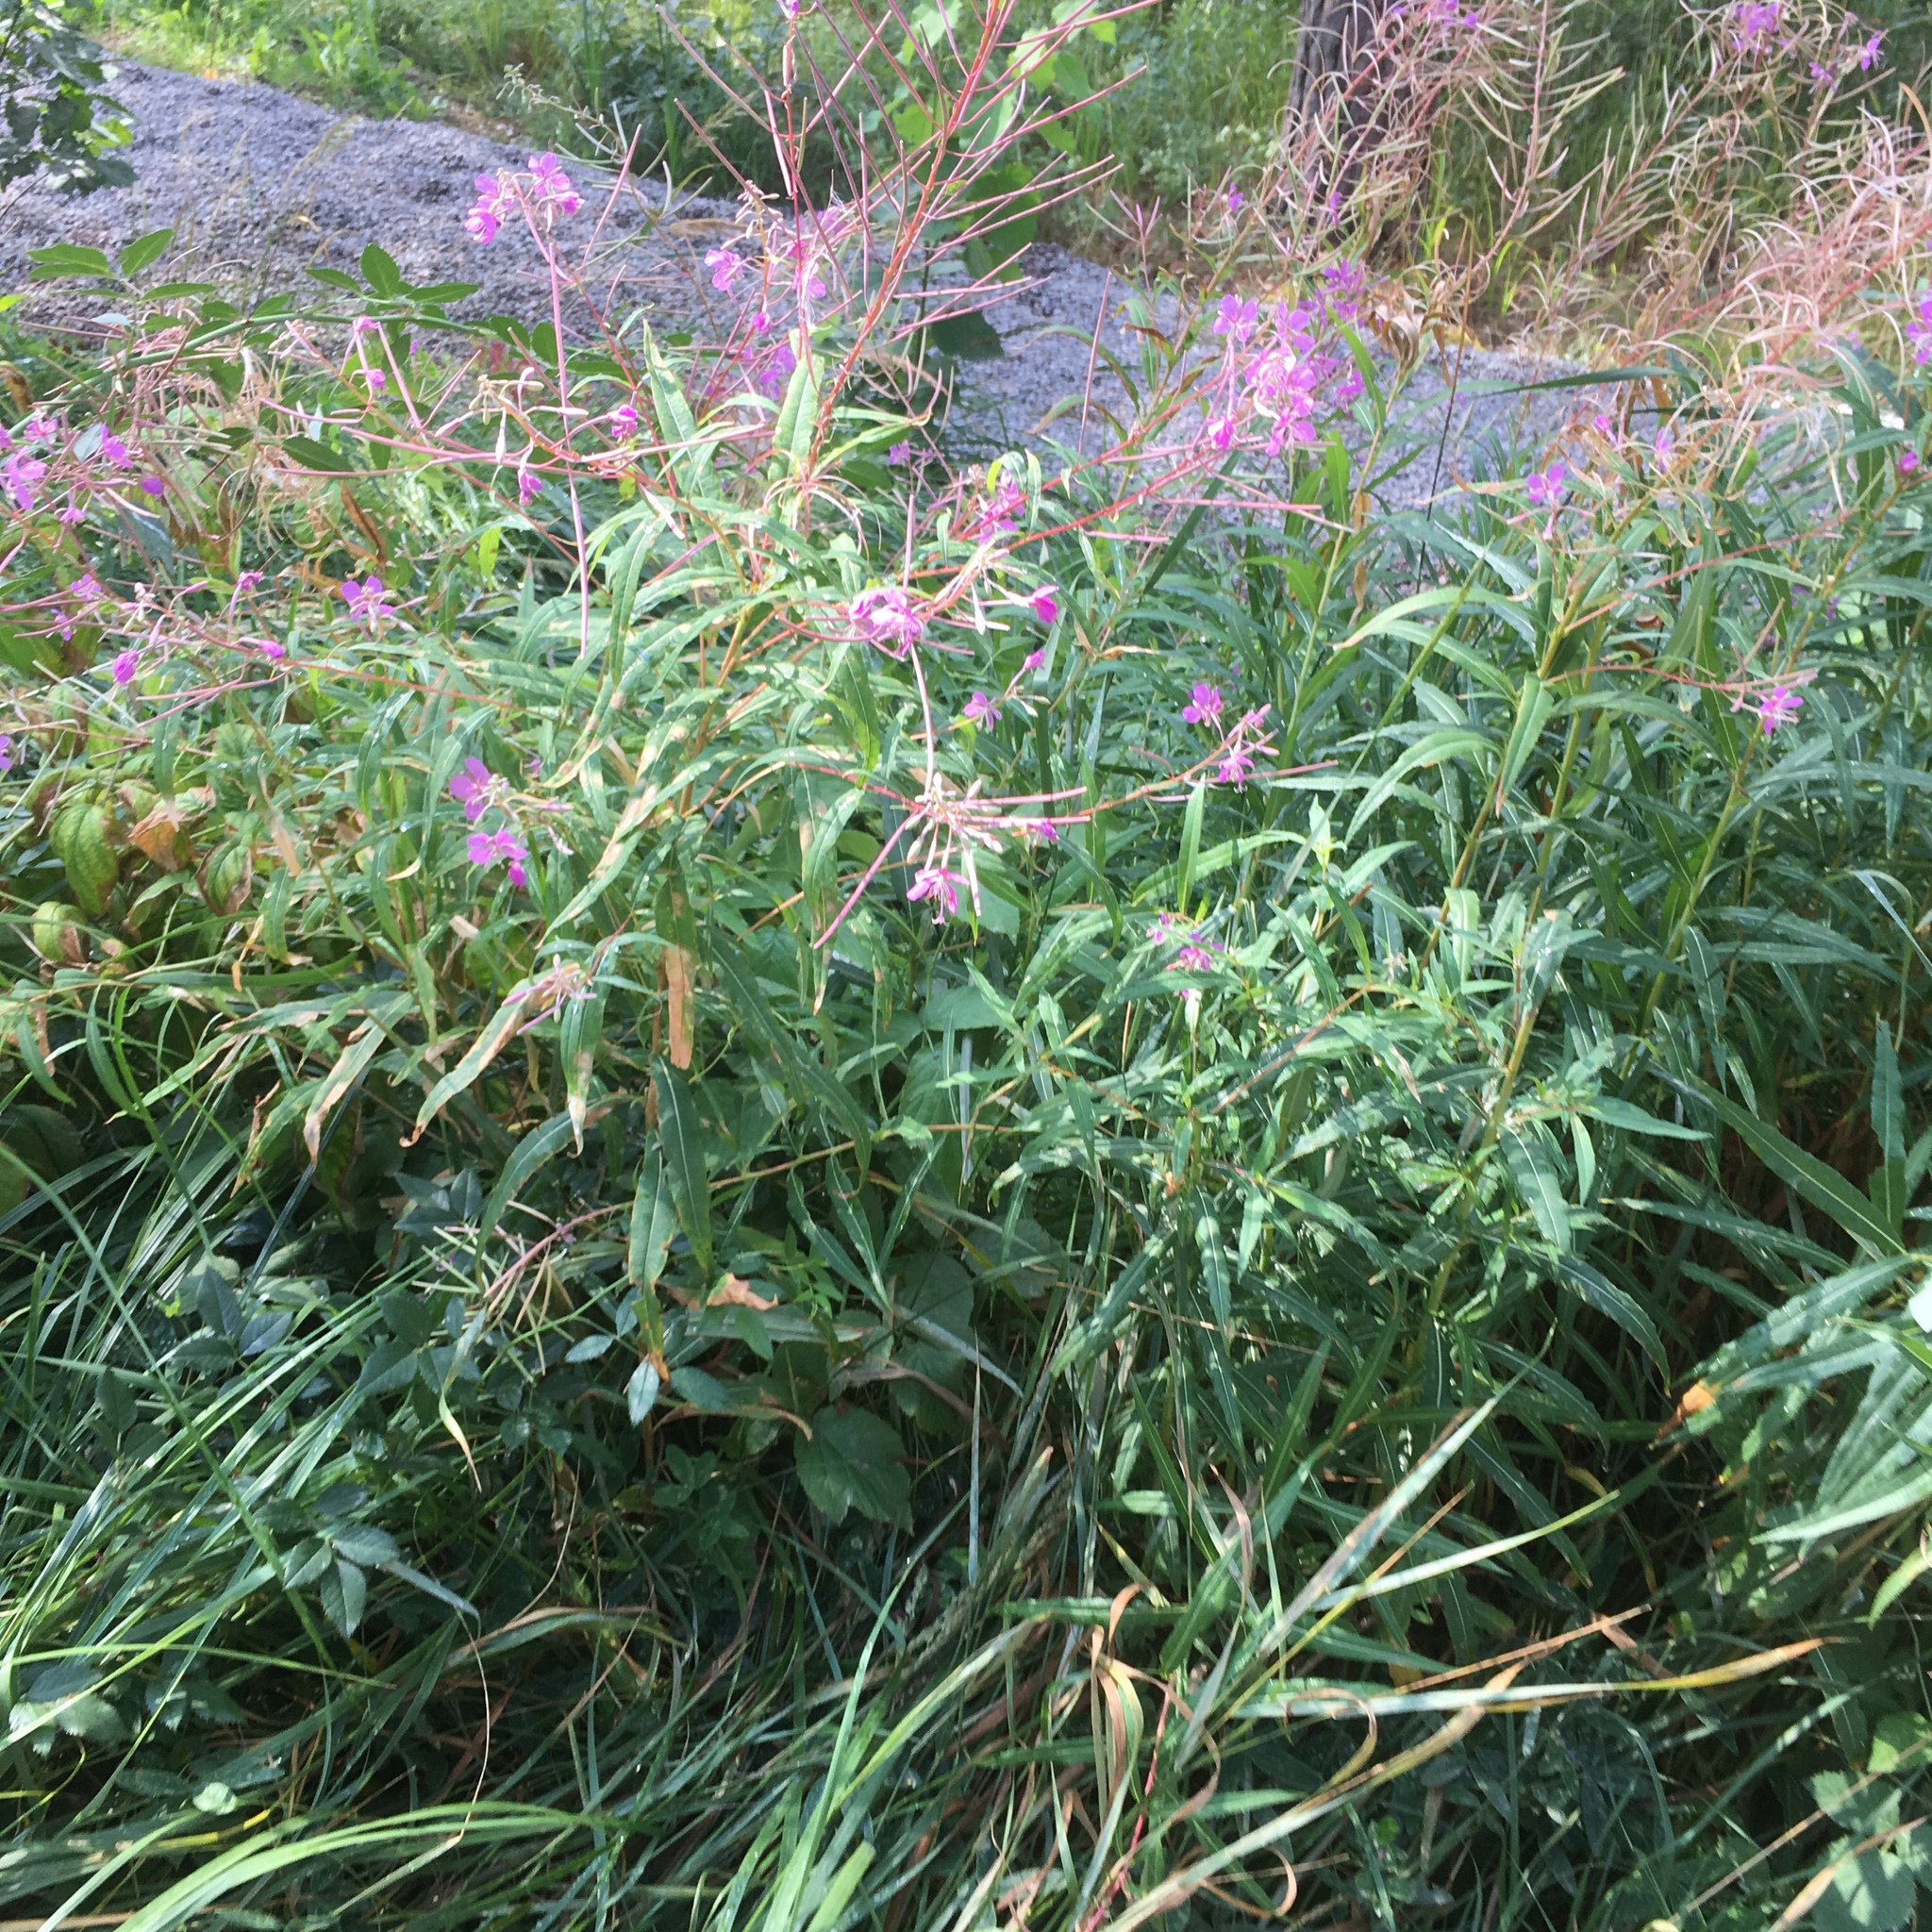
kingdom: Plantae
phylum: Tracheophyta
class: Magnoliopsida
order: Myrtales
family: Onagraceae
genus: Chamaenerion
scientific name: Chamaenerion angustifolium
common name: Fireweed
